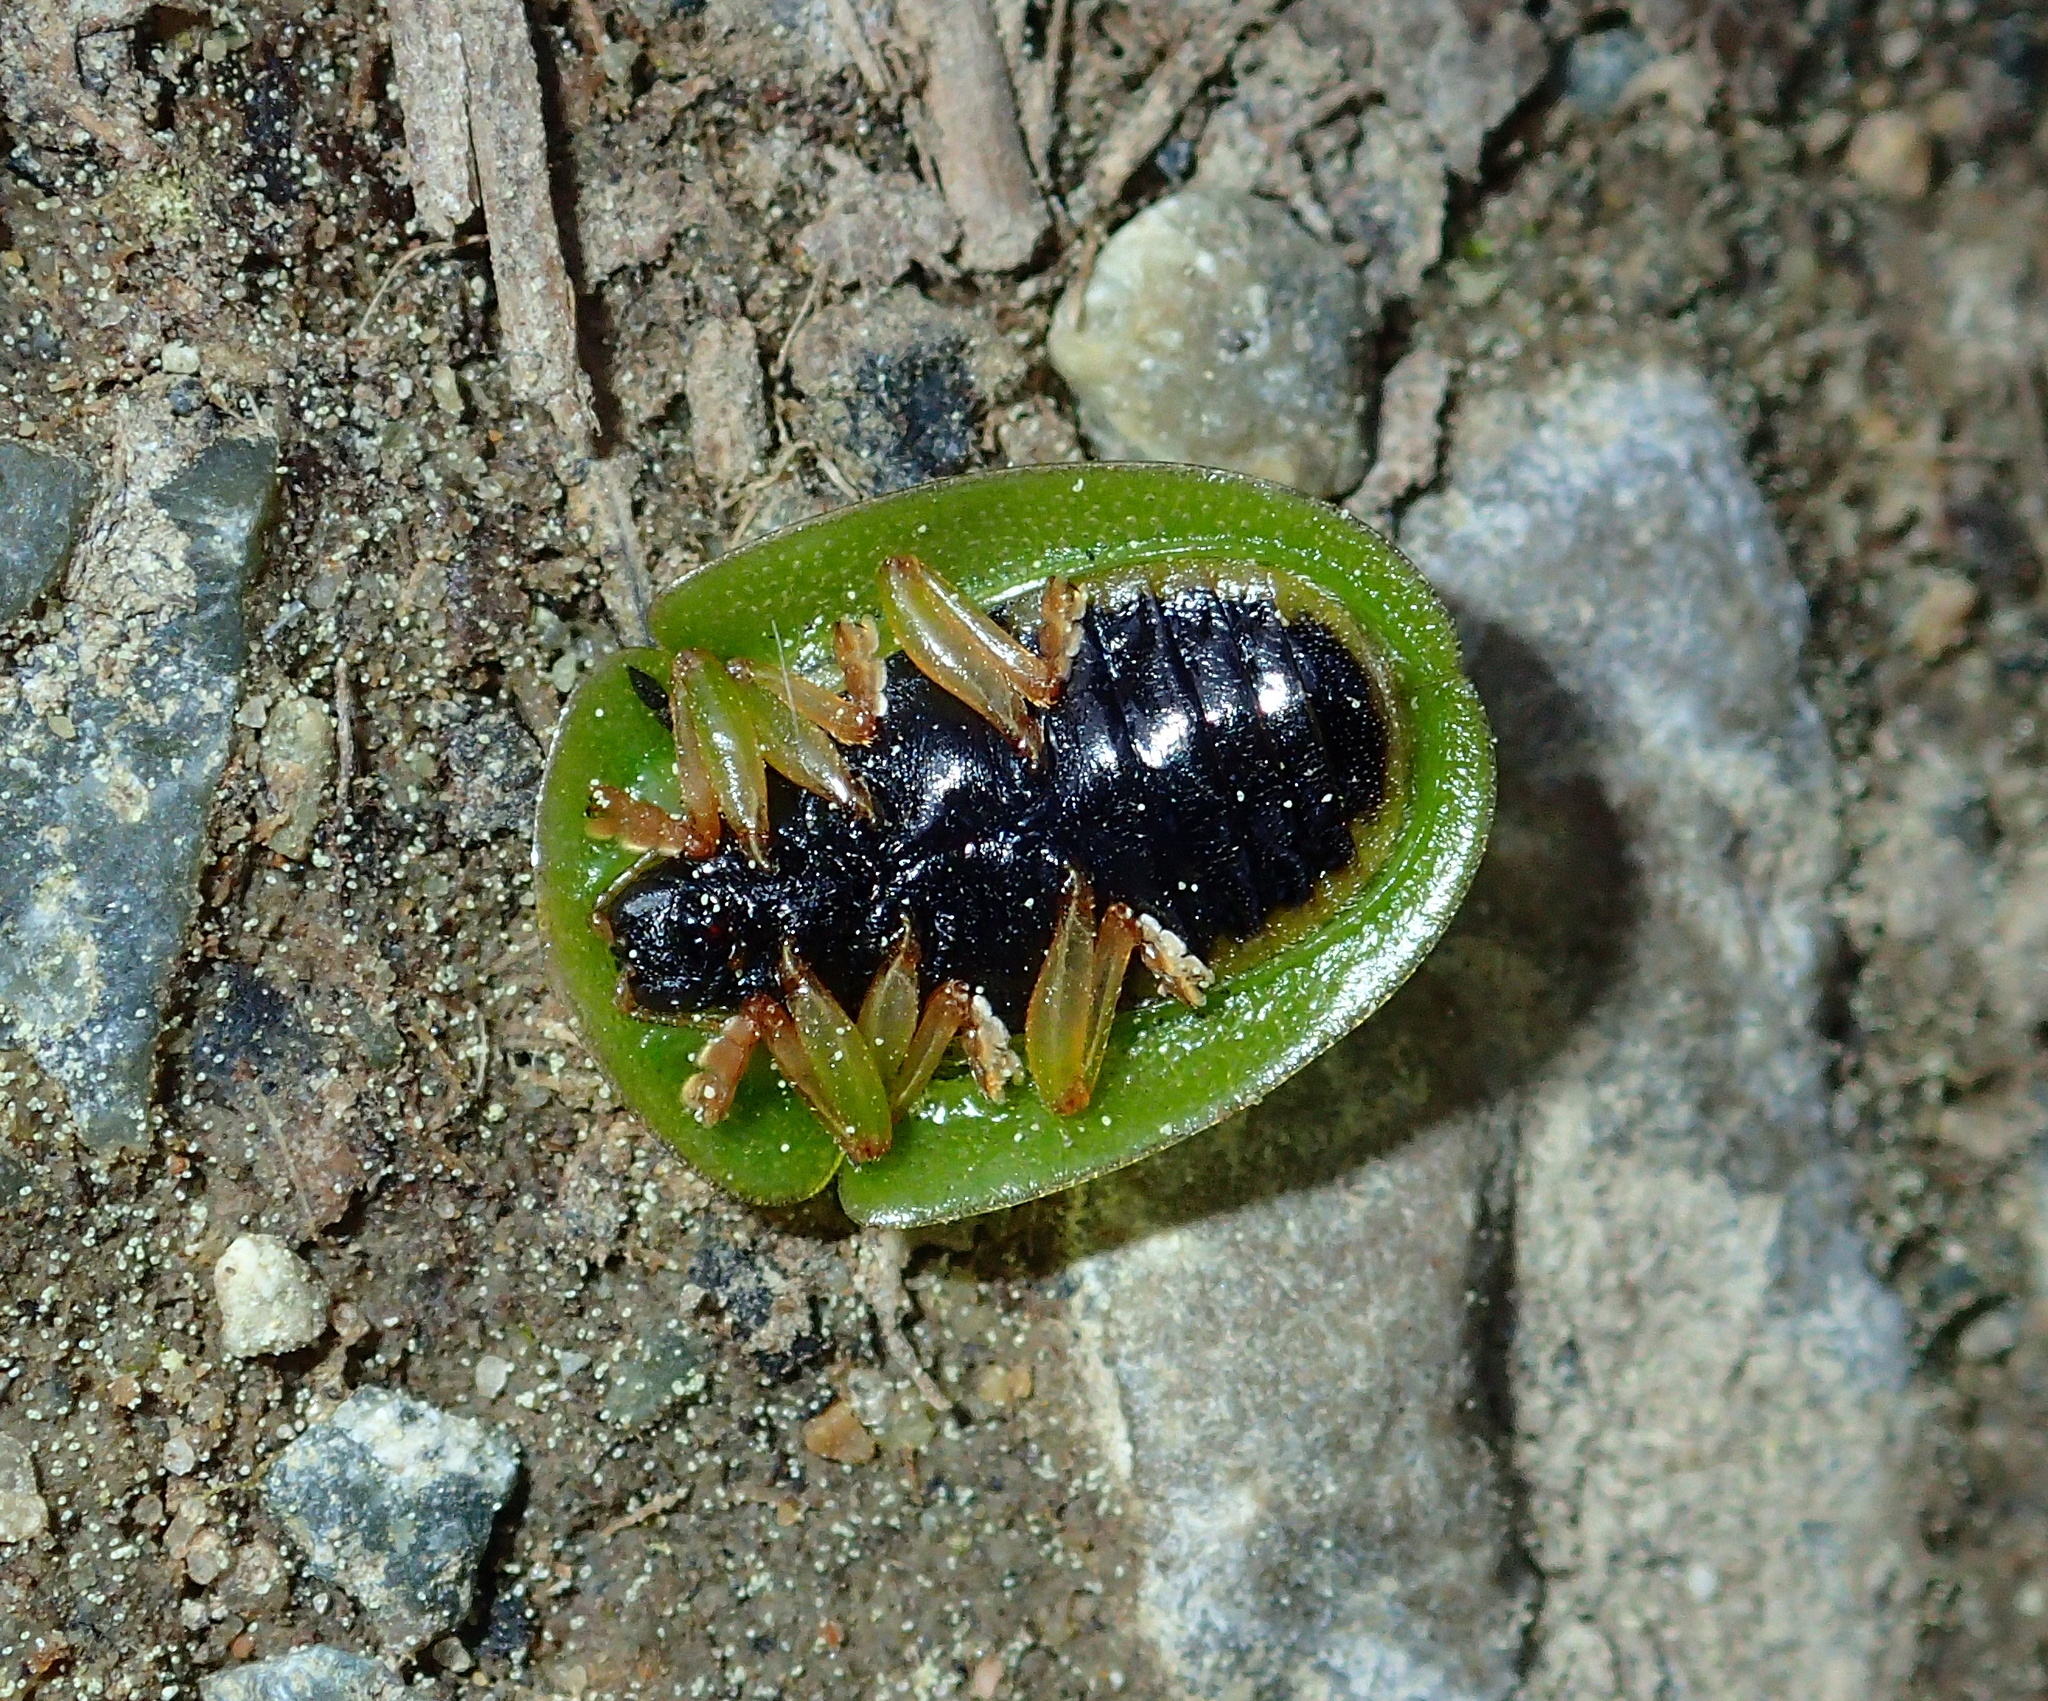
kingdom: Animalia
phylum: Arthropoda
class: Insecta
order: Coleoptera
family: Chrysomelidae
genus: Cassida
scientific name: Cassida viridis
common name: Green tortoise beetle
